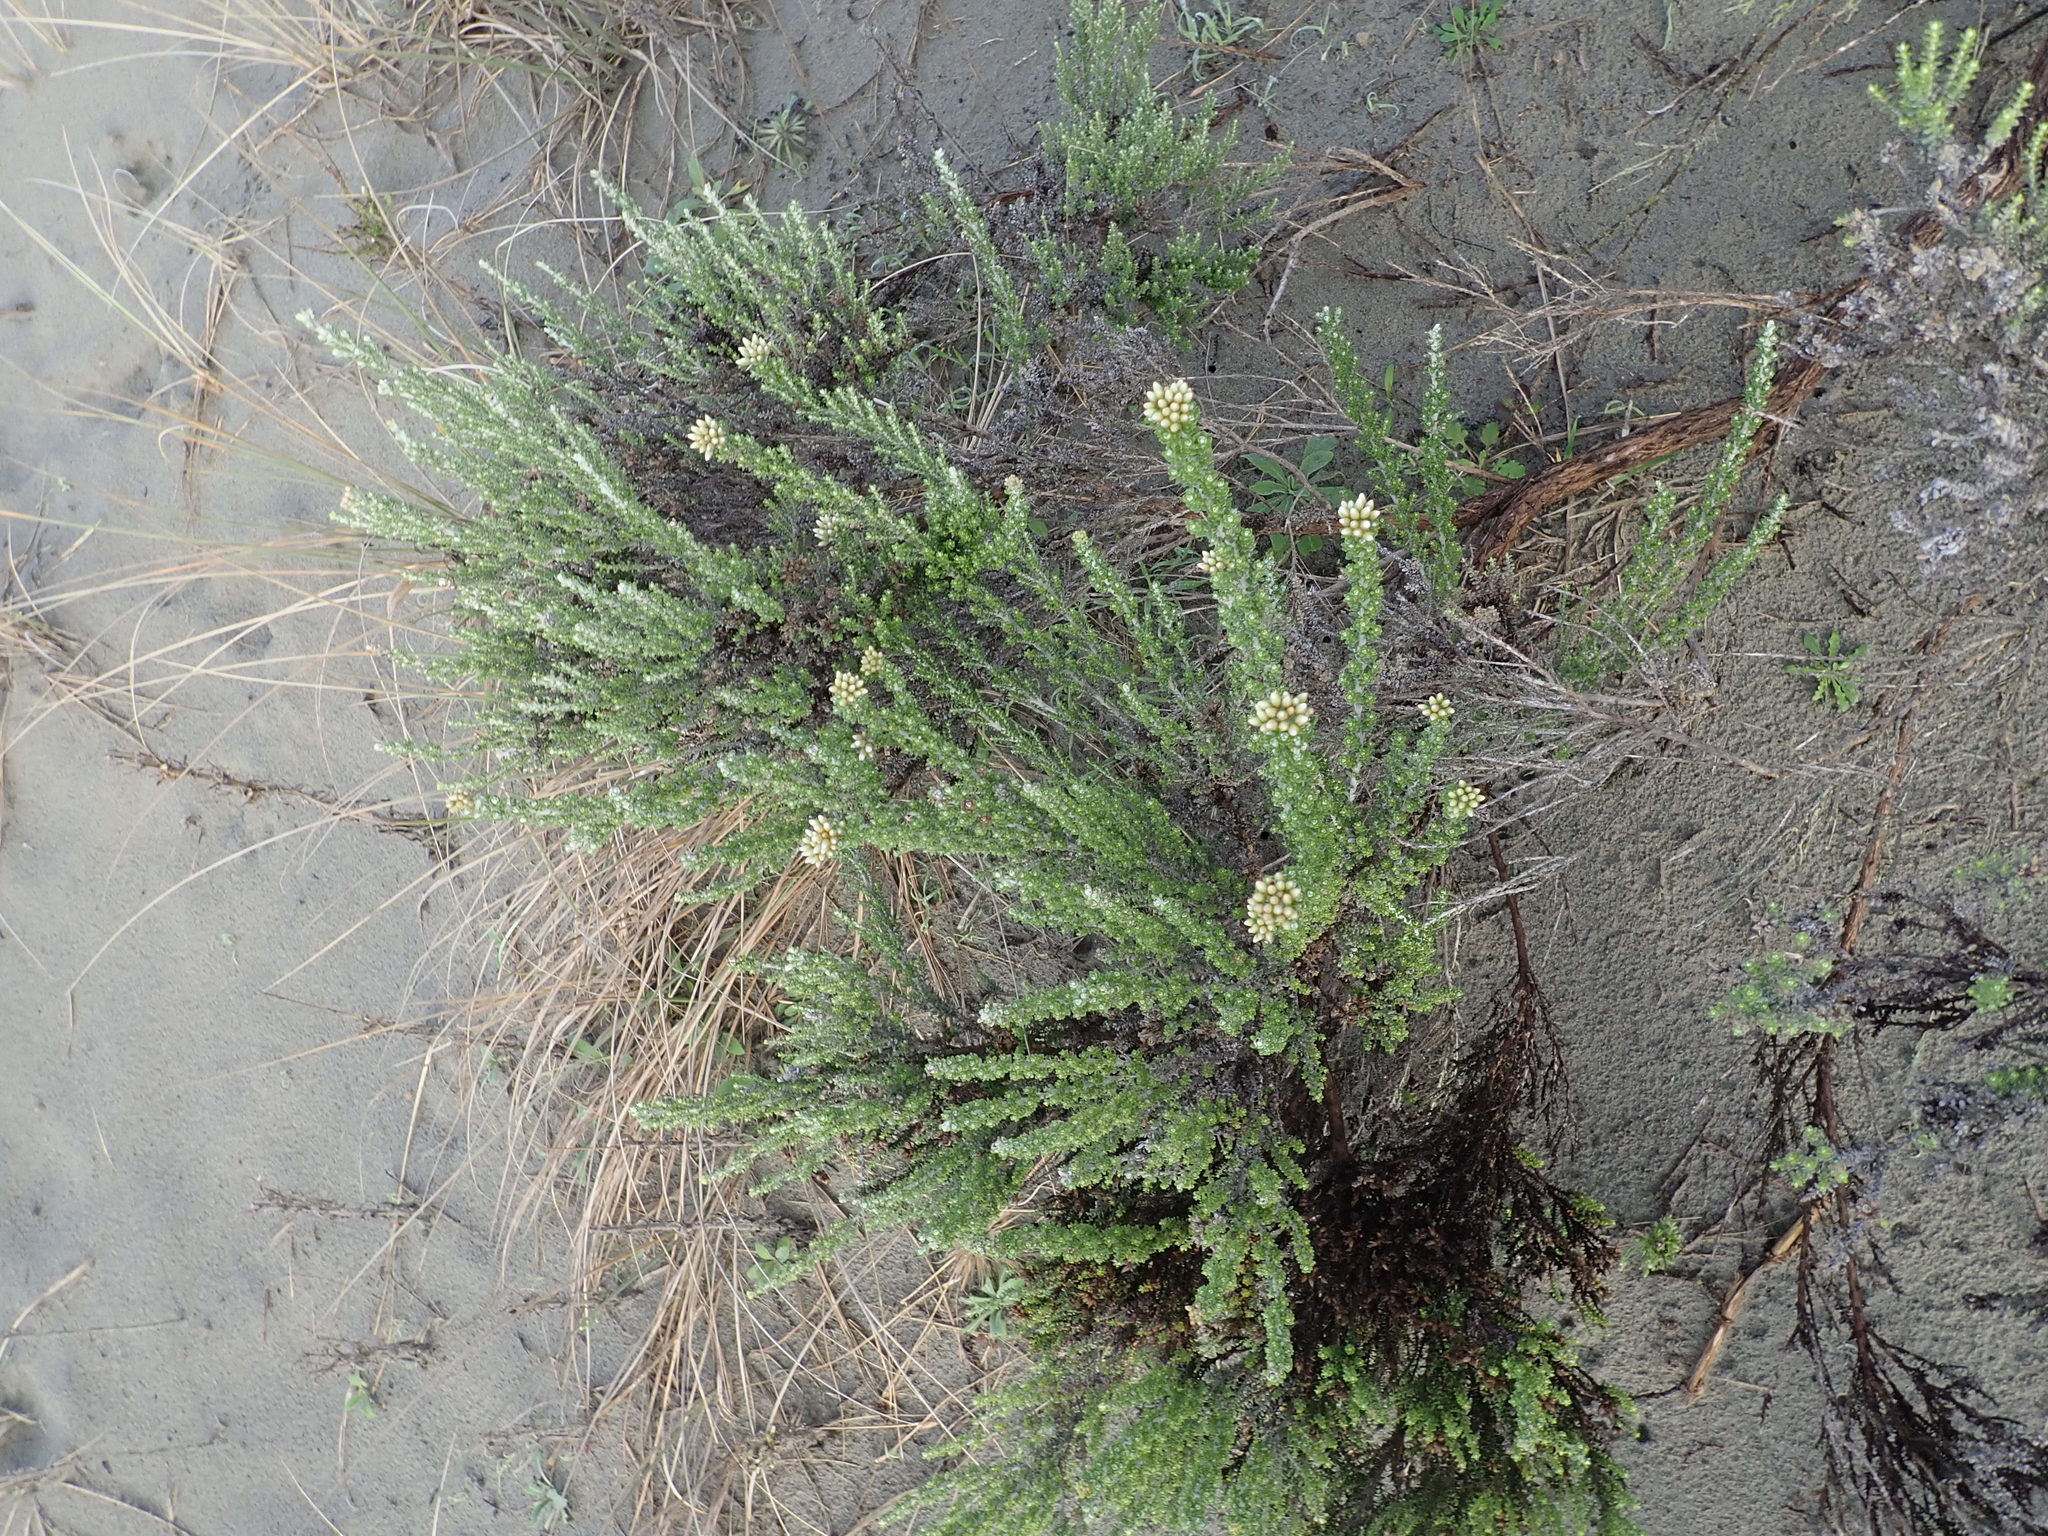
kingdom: Plantae
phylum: Tracheophyta
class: Magnoliopsida
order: Asterales
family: Asteraceae
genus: Ozothamnus
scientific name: Ozothamnus leptophyllus
